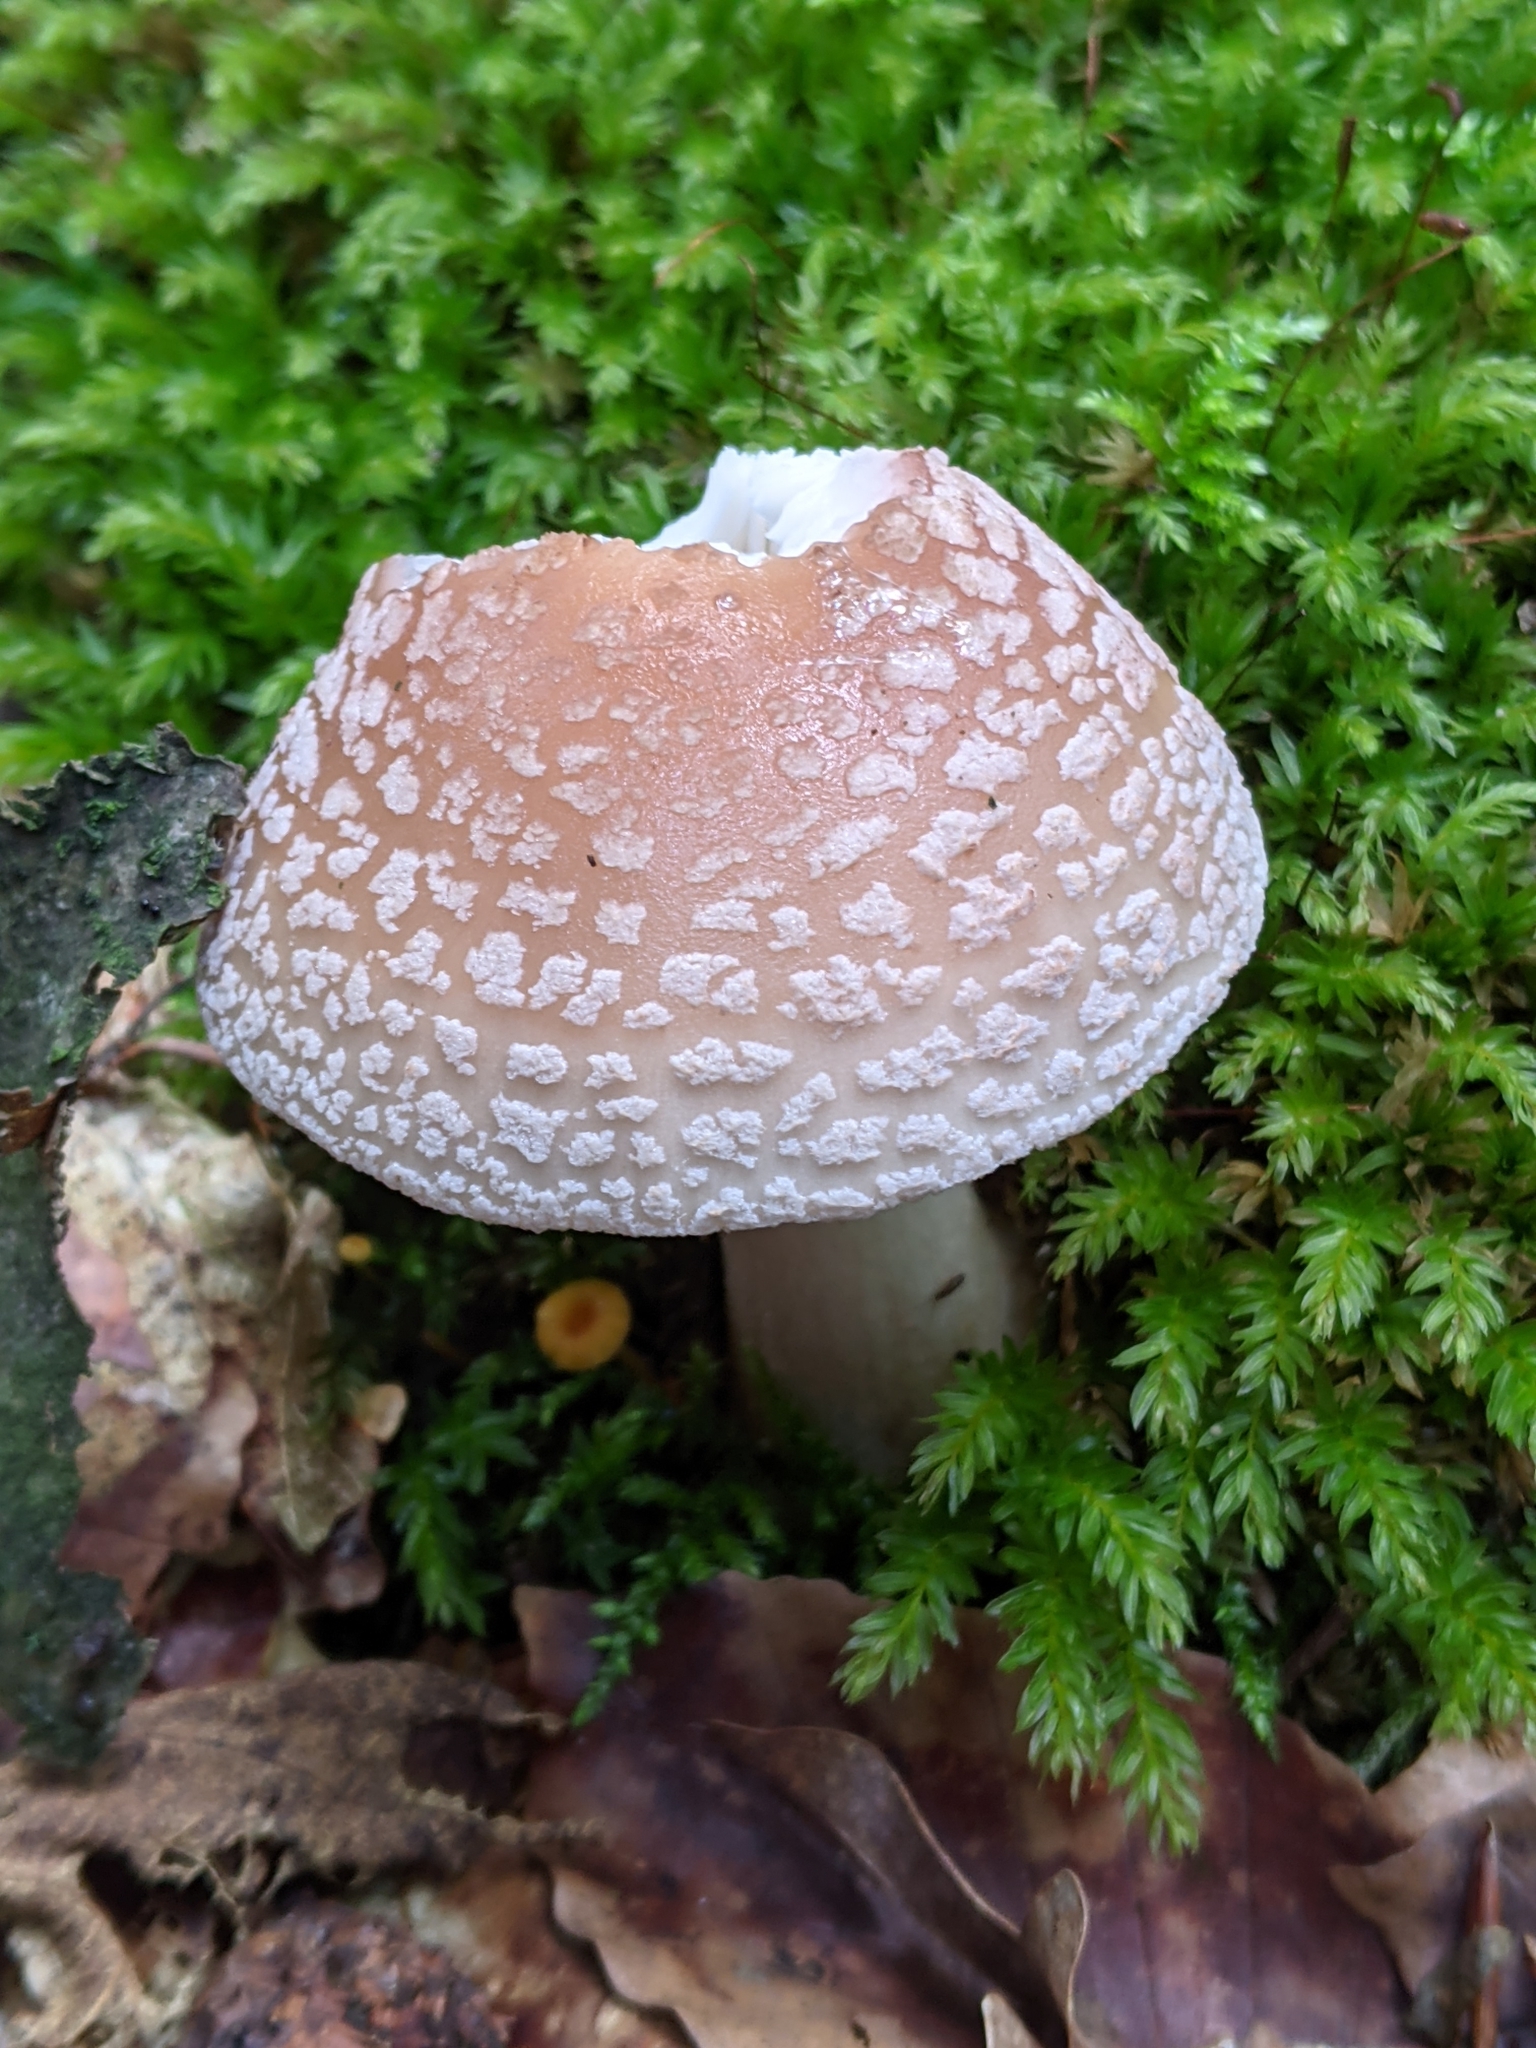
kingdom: Fungi
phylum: Basidiomycota
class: Agaricomycetes
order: Agaricales
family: Amanitaceae
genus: Amanita
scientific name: Amanita rubescens
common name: Blusher
